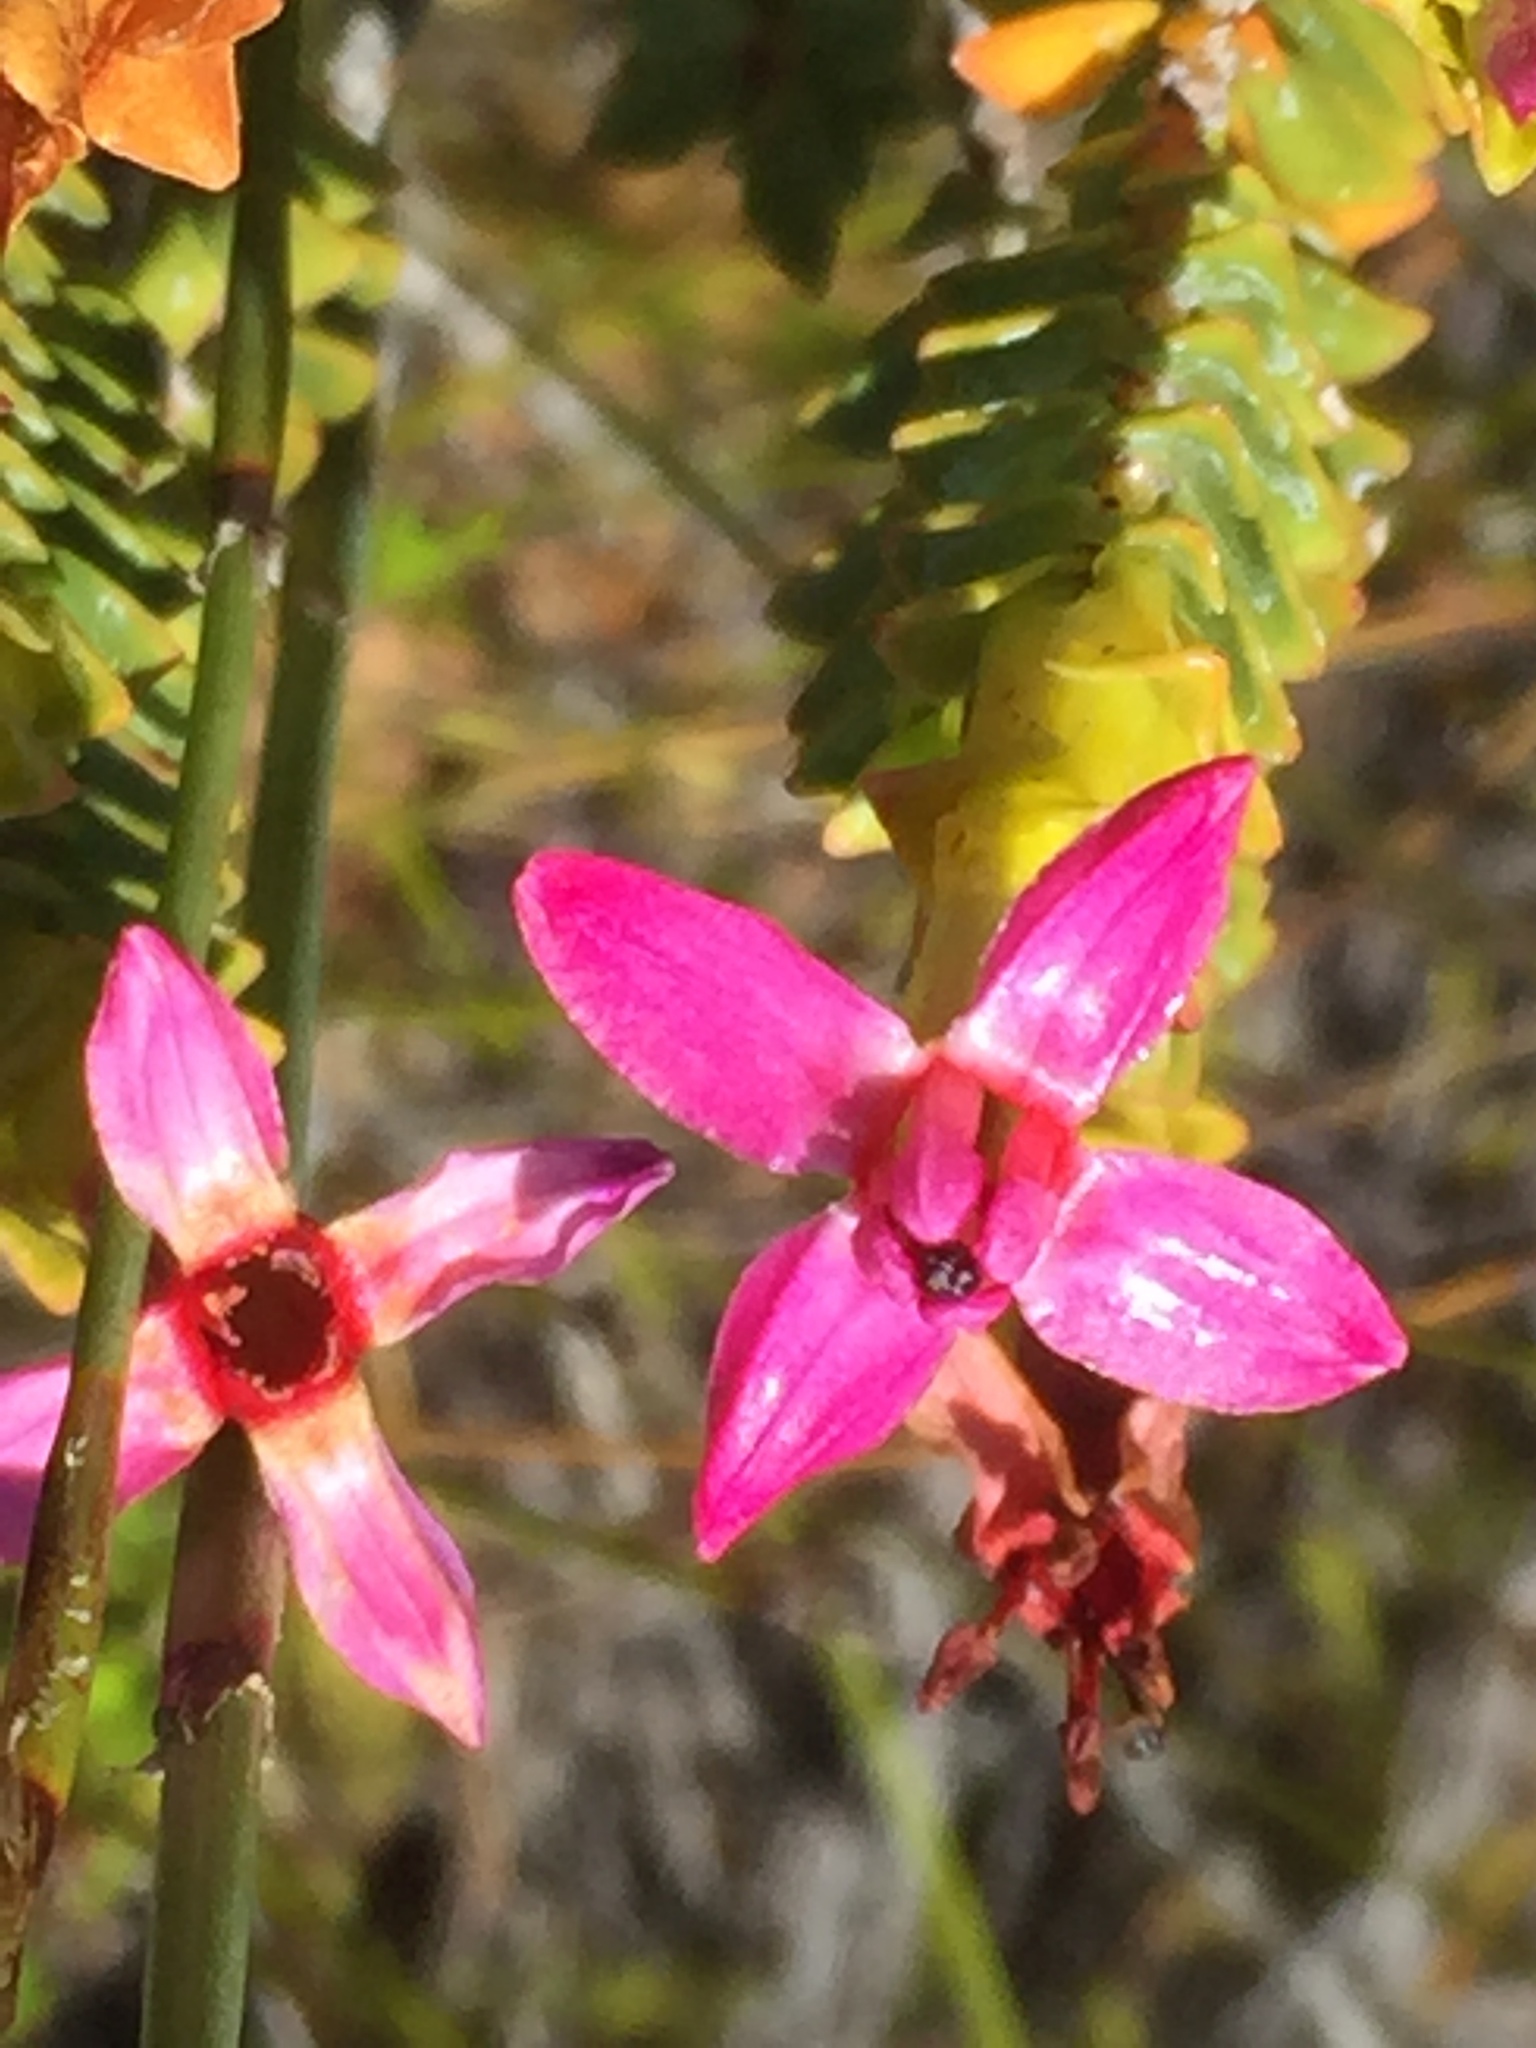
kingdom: Plantae
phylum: Tracheophyta
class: Magnoliopsida
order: Myrtales
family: Penaeaceae
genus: Saltera
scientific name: Saltera sarcocolla
